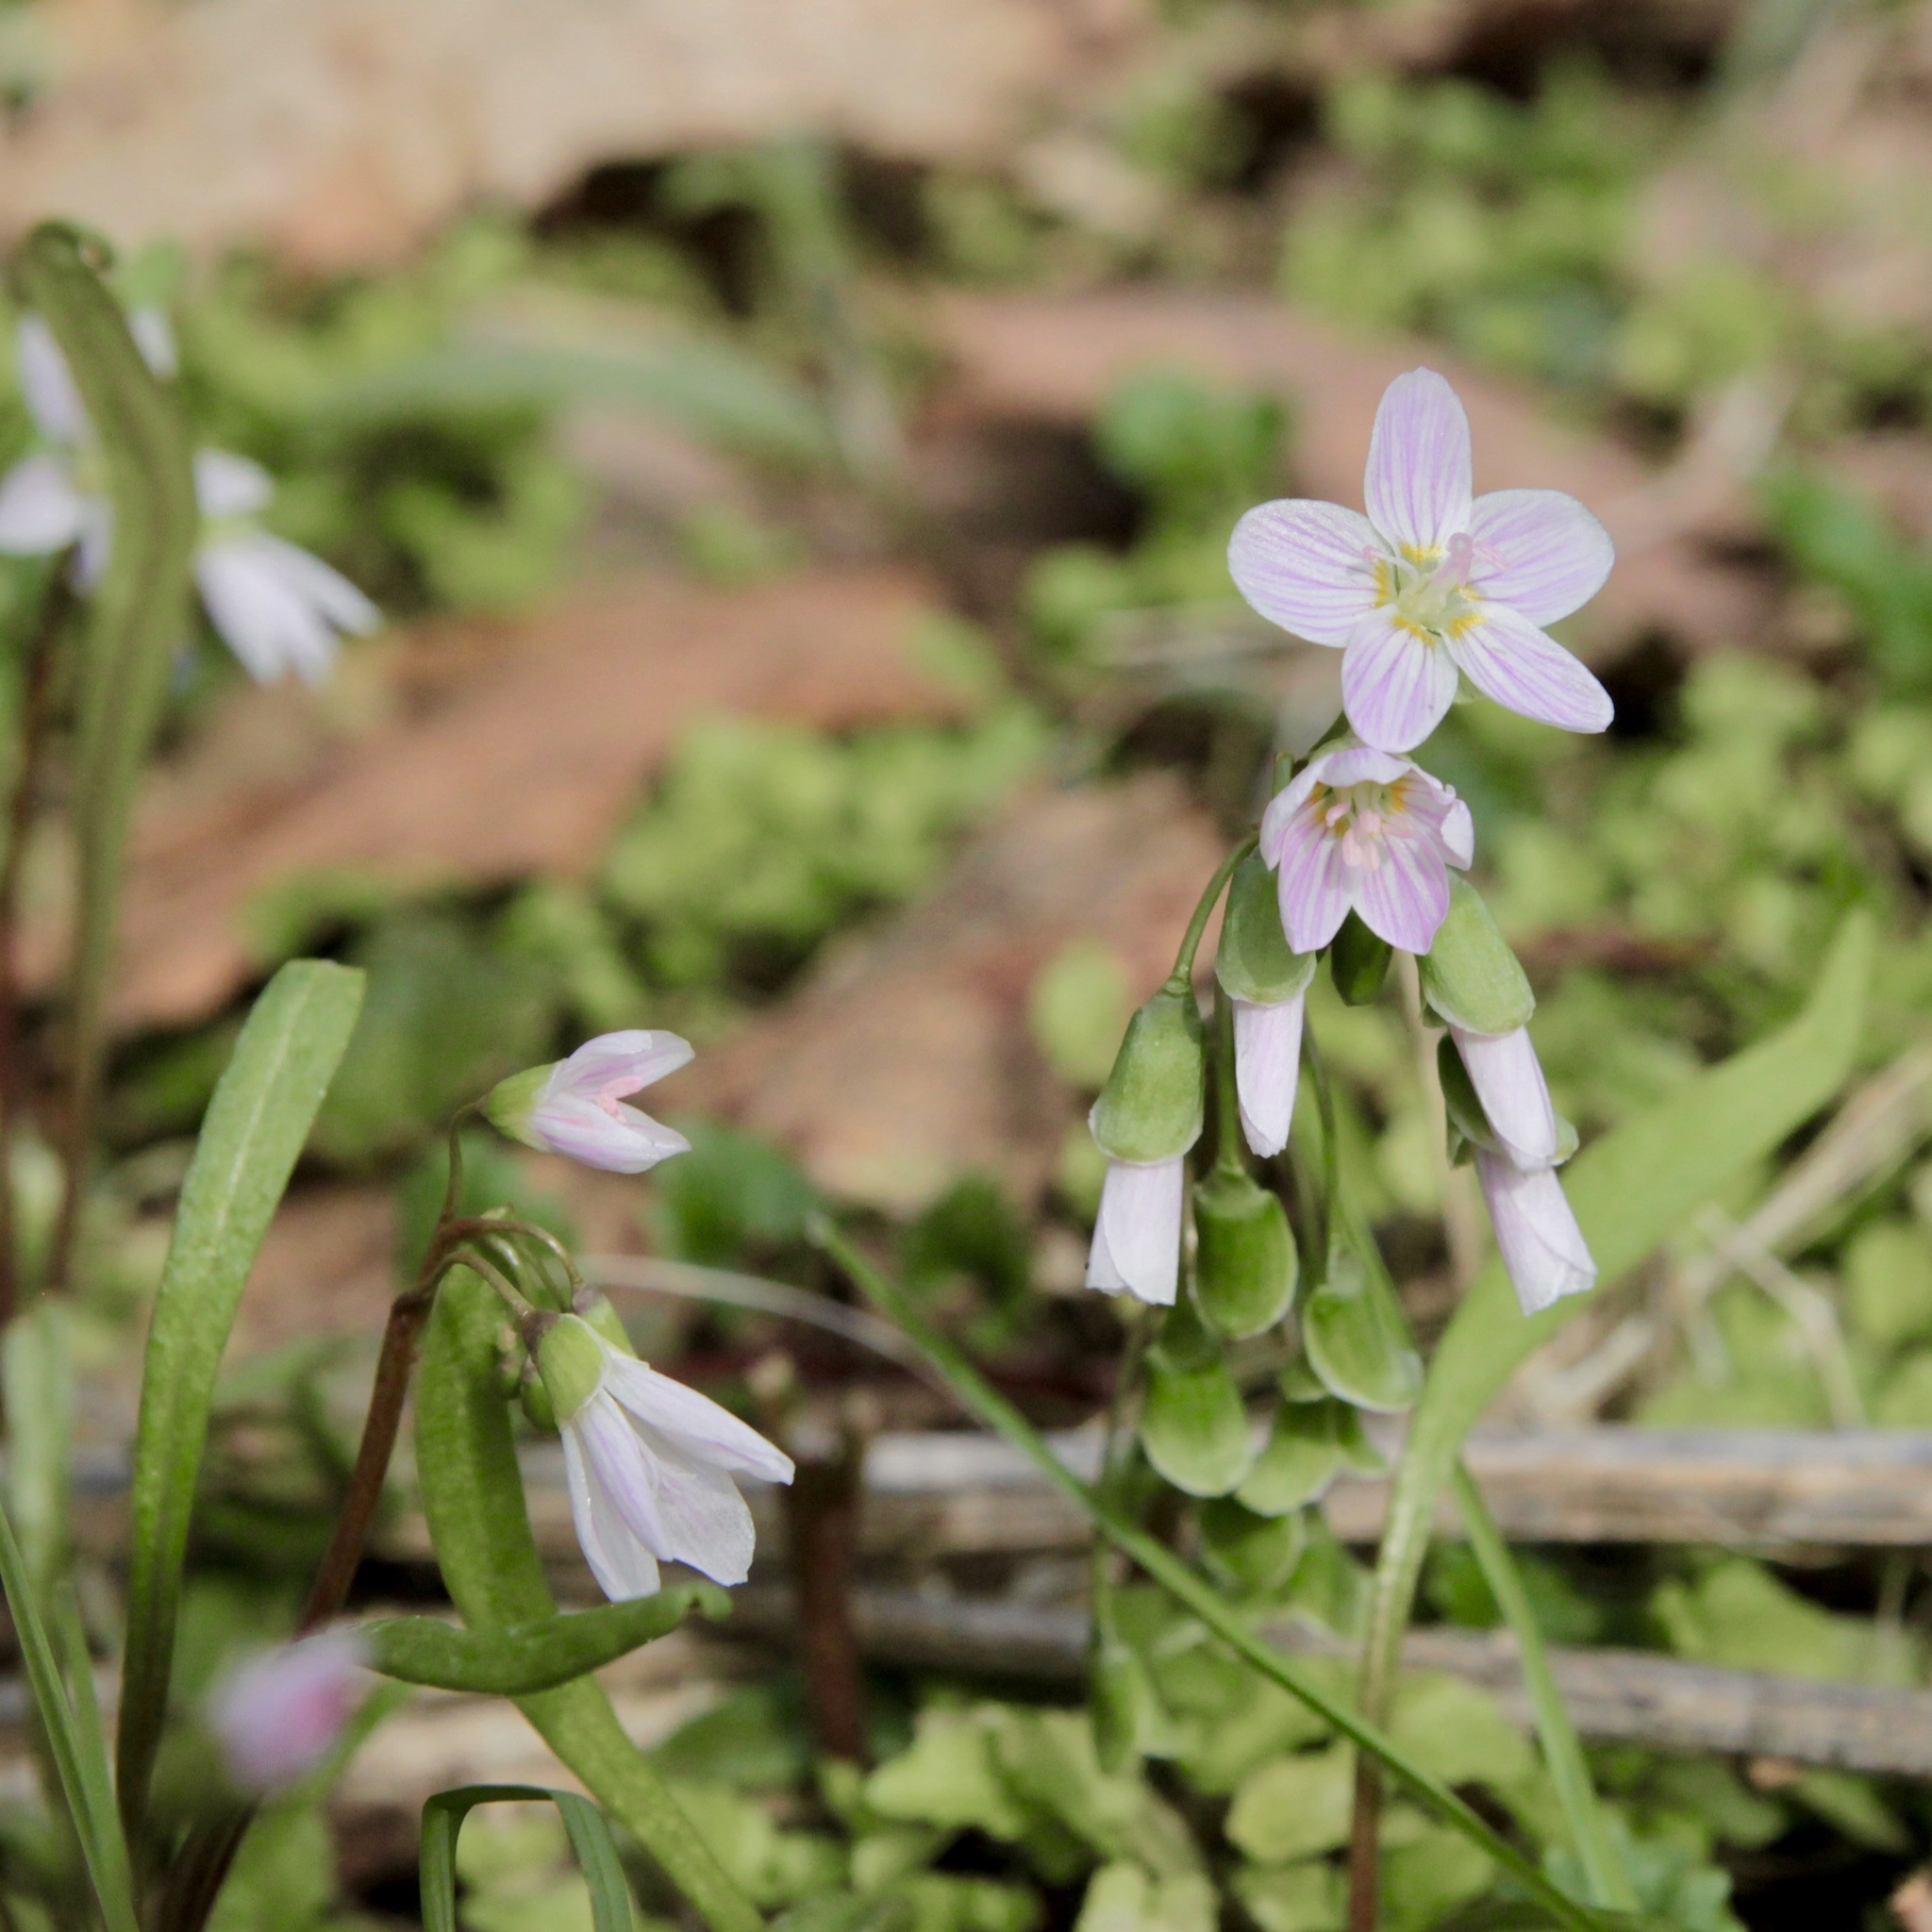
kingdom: Plantae
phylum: Tracheophyta
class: Magnoliopsida
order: Caryophyllales
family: Montiaceae
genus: Claytonia
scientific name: Claytonia virginica
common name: Virginia springbeauty
